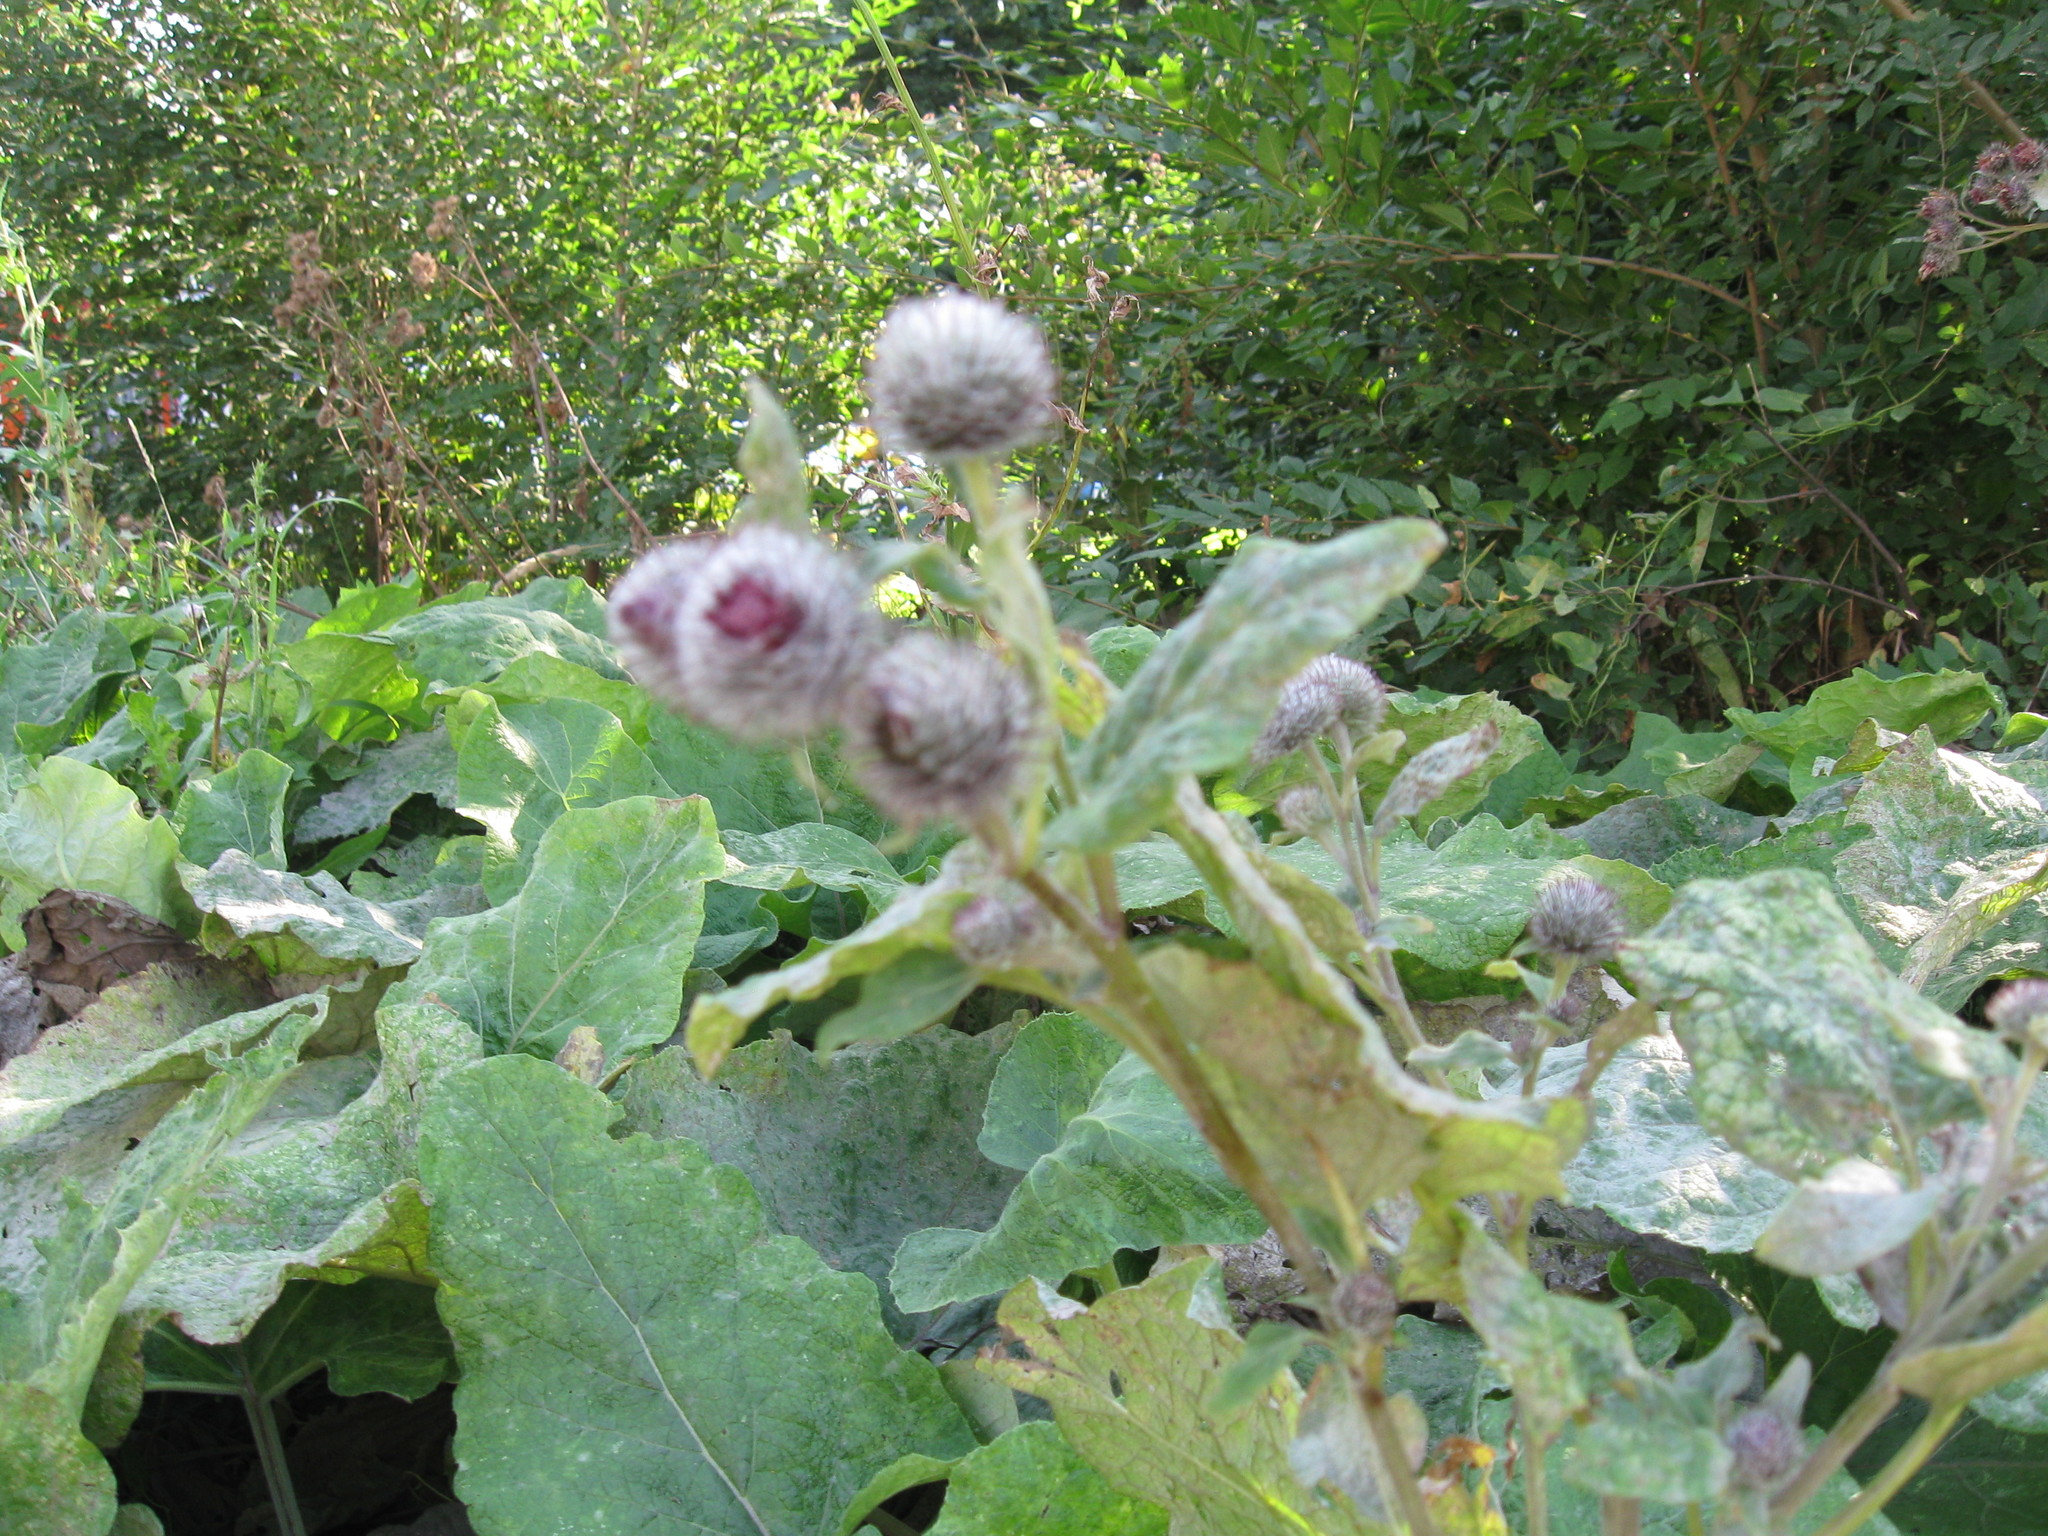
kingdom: Plantae
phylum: Tracheophyta
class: Magnoliopsida
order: Asterales
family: Asteraceae
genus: Arctium
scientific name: Arctium tomentosum
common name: Woolly burdock
